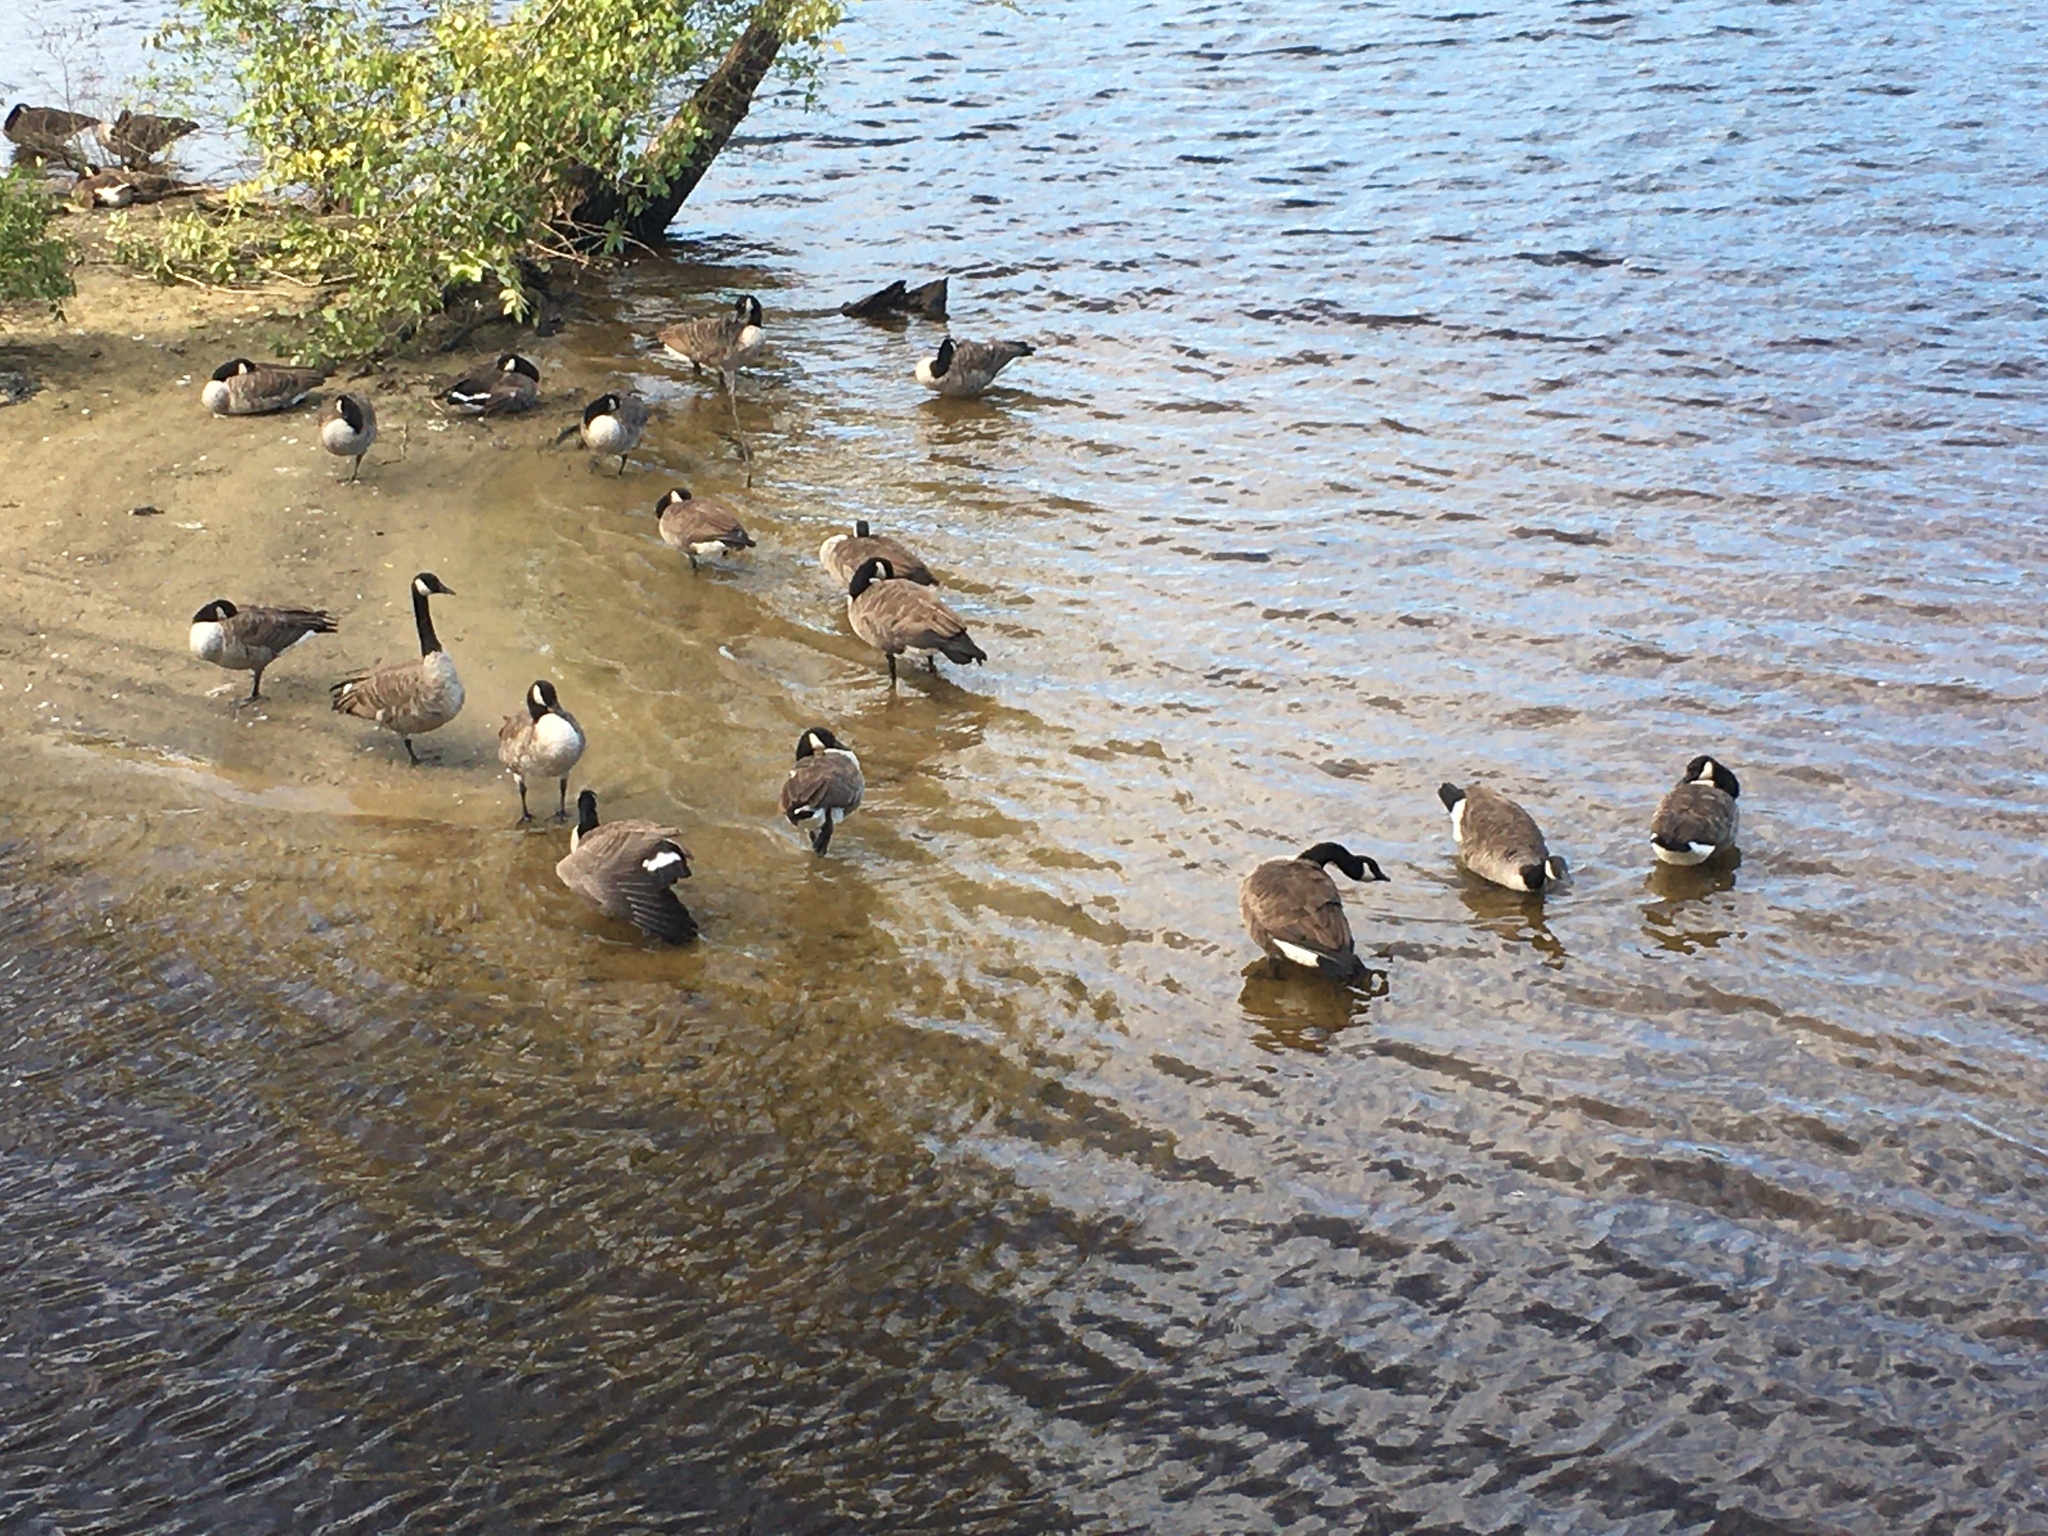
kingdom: Animalia
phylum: Chordata
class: Aves
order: Anseriformes
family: Anatidae
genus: Branta
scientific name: Branta canadensis
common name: Canada goose
